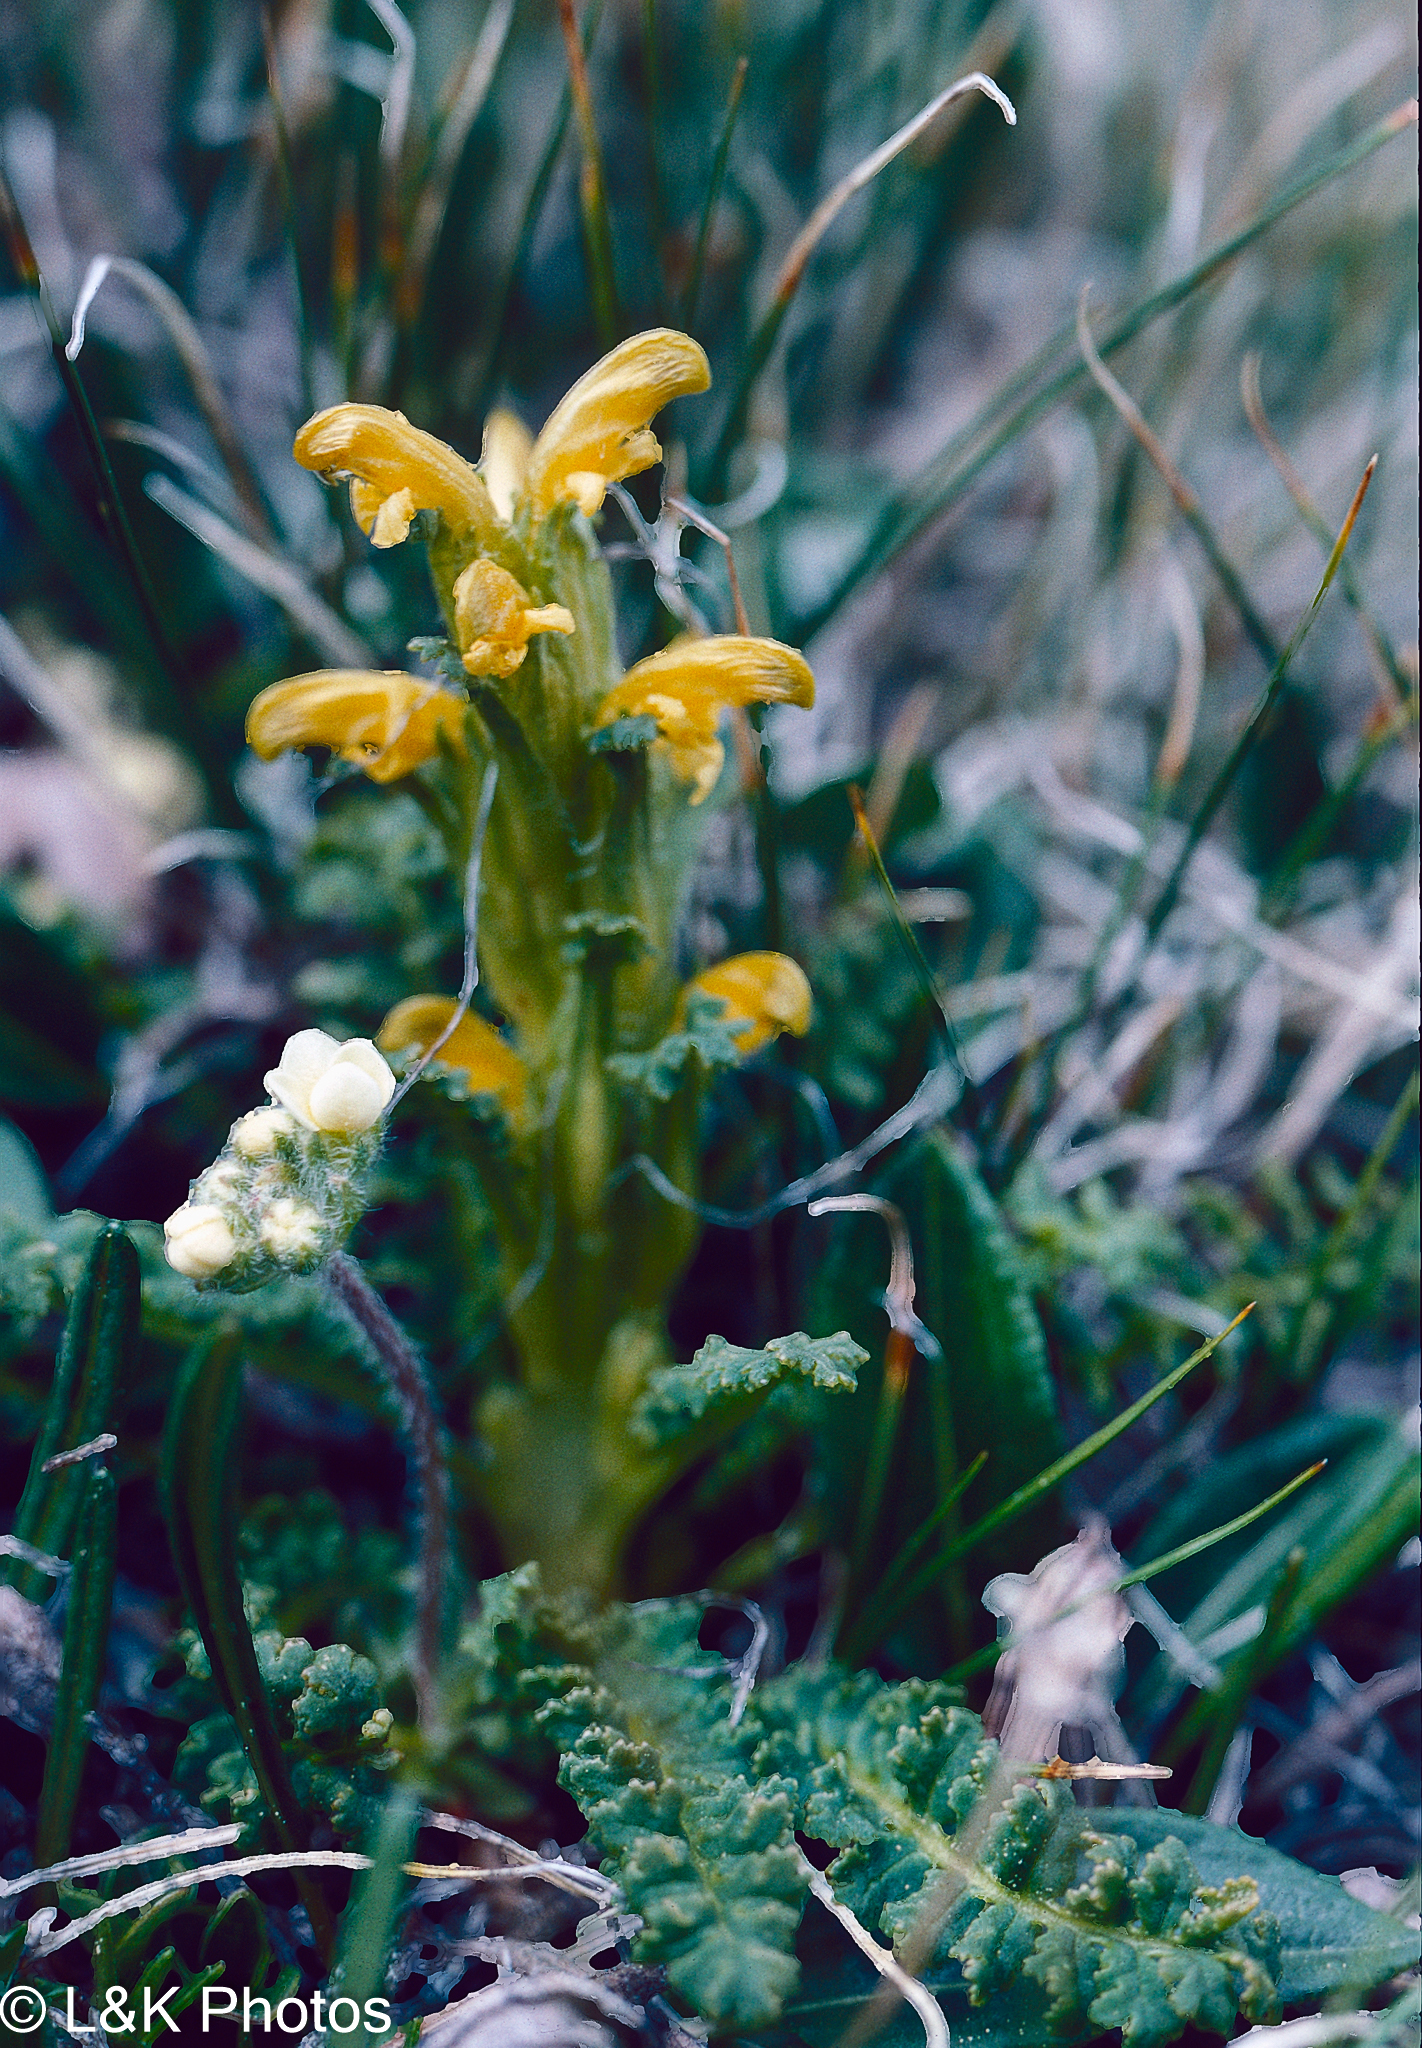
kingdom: Plantae
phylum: Tracheophyta
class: Magnoliopsida
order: Lamiales
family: Orobanchaceae
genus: Pedicularis
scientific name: Pedicularis flammea
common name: Flame-coloured lousewort
